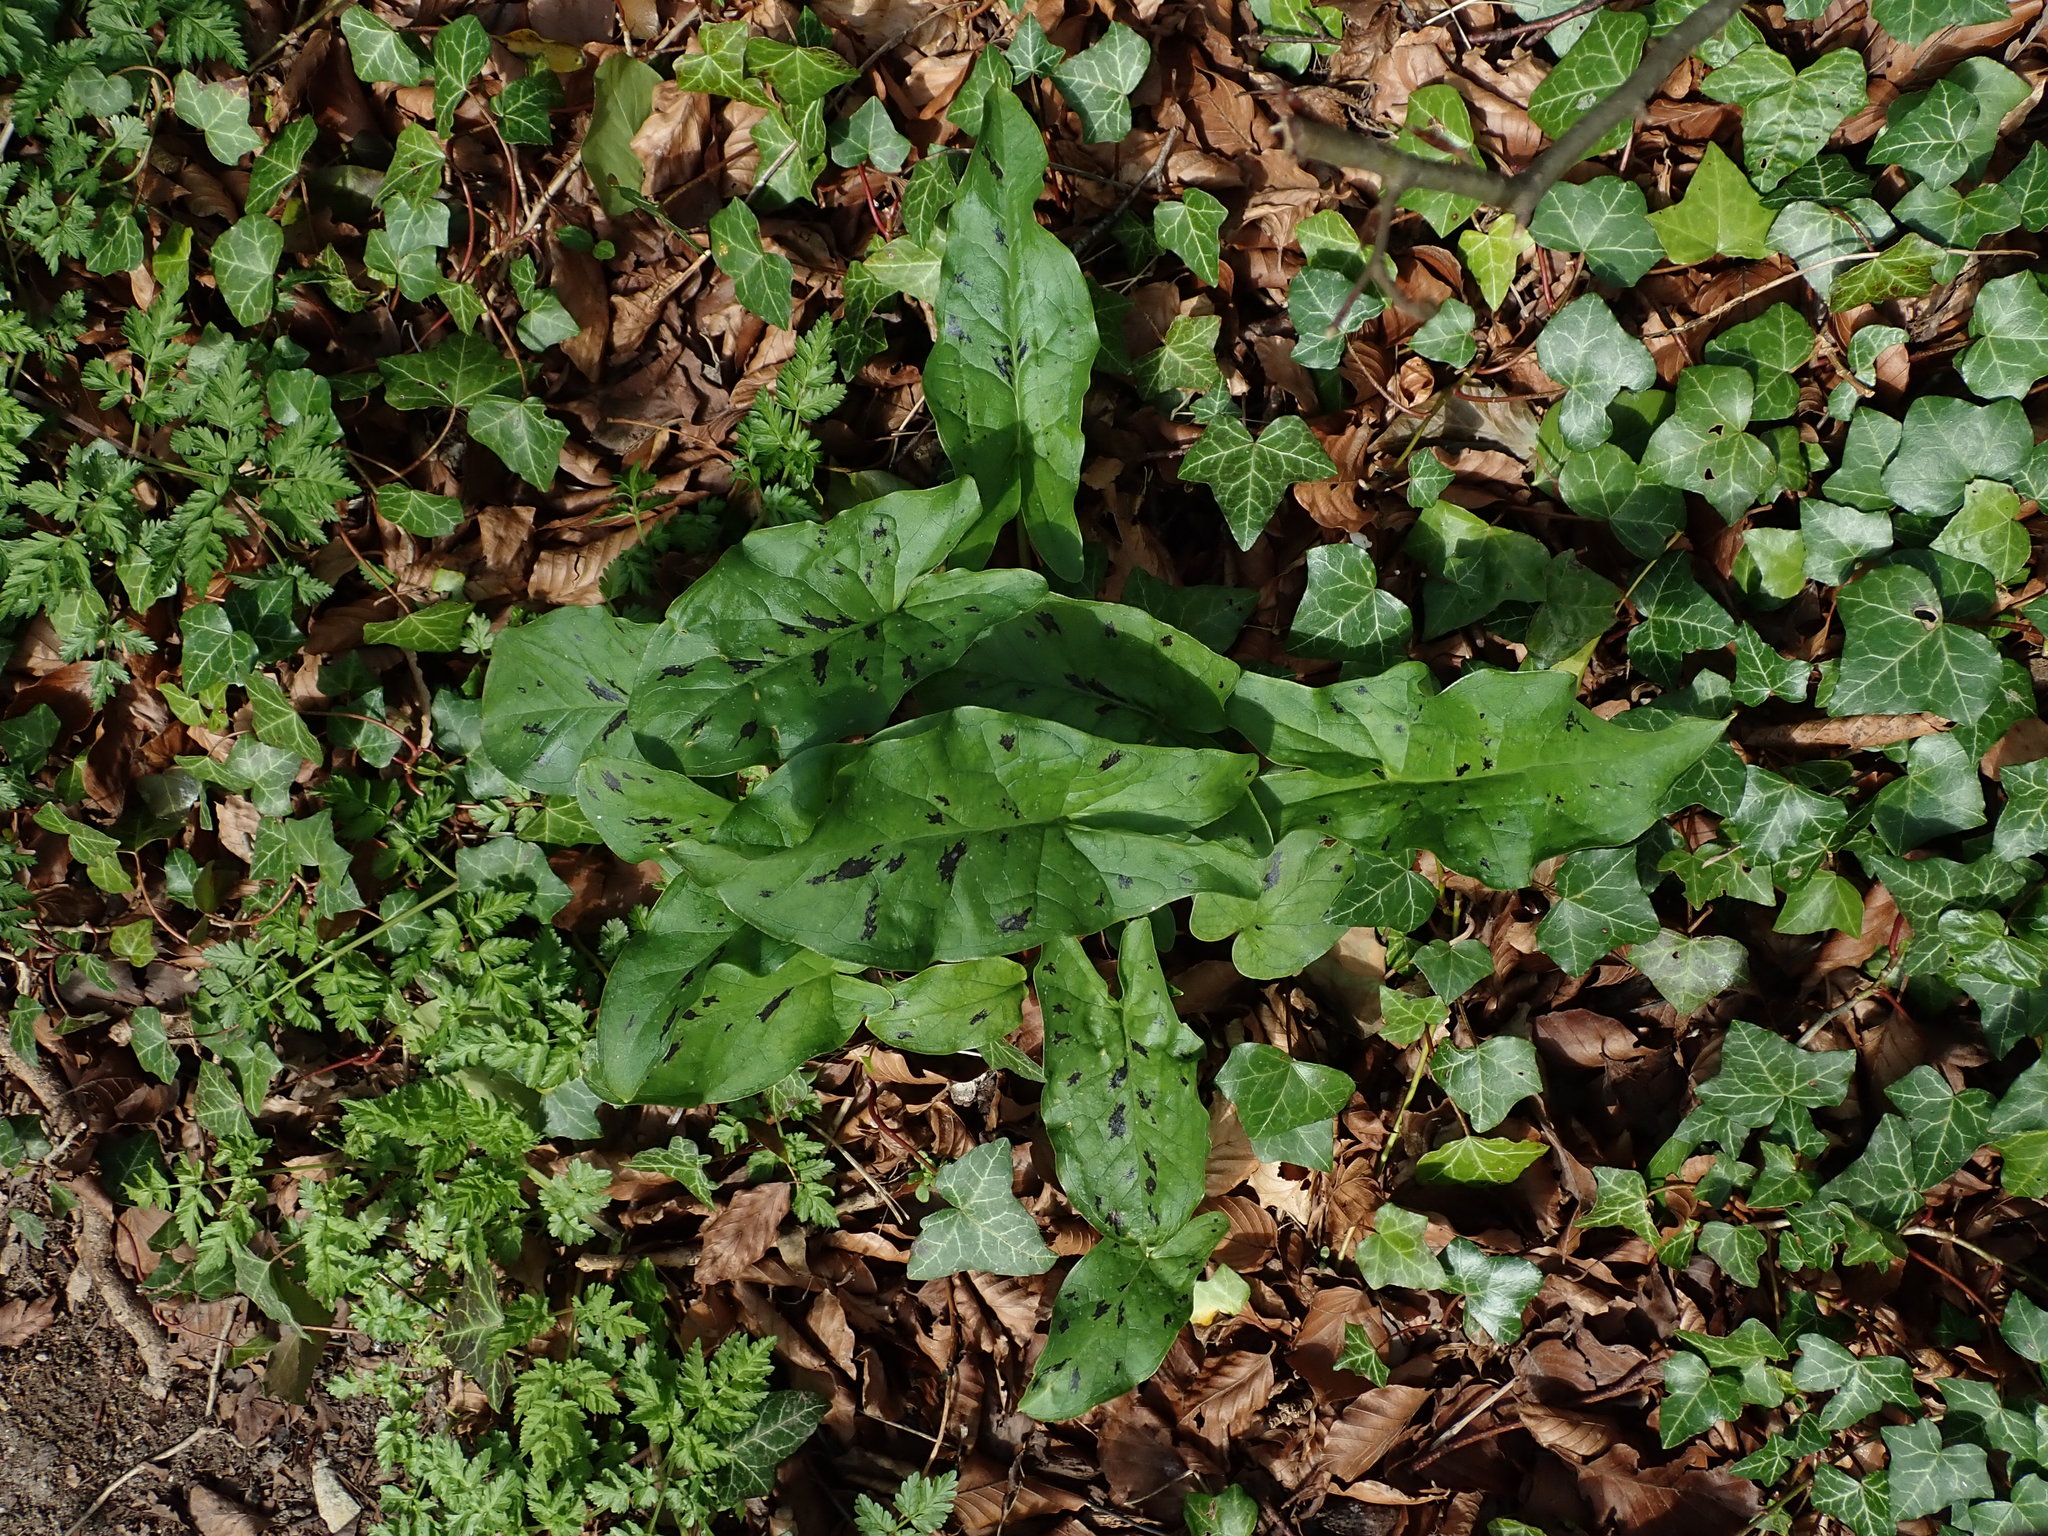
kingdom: Plantae
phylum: Tracheophyta
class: Liliopsida
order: Alismatales
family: Araceae
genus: Arum
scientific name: Arum maculatum
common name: Lords-and-ladies
